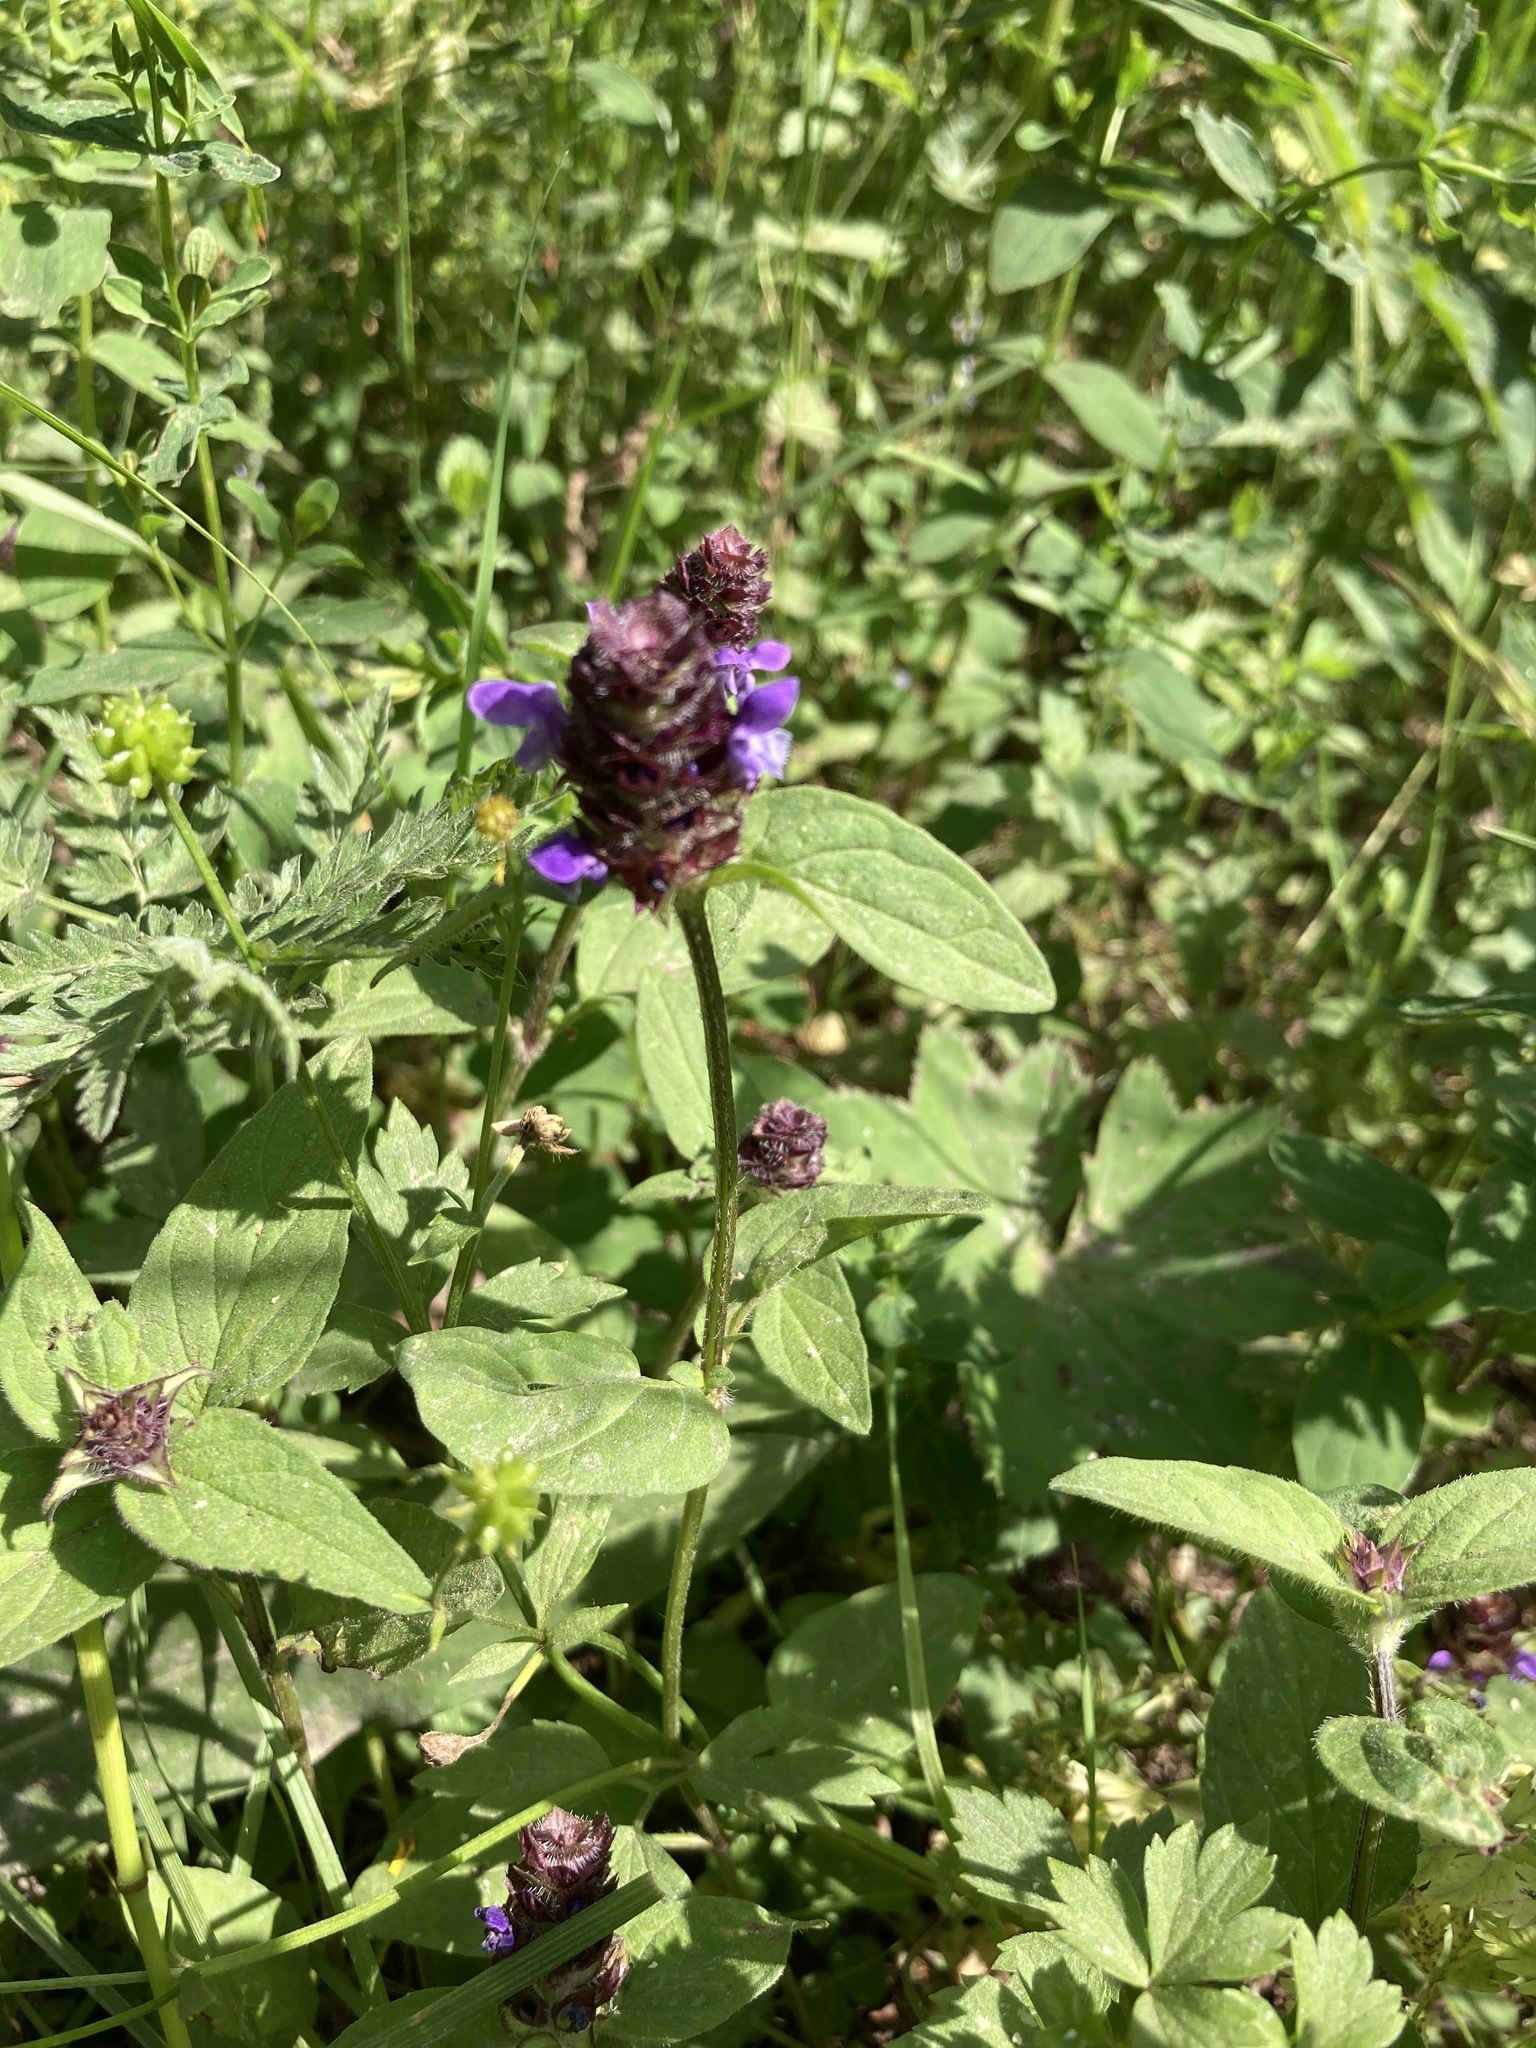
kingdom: Plantae
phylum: Tracheophyta
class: Magnoliopsida
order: Lamiales
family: Lamiaceae
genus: Prunella
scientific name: Prunella vulgaris
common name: Heal-all
